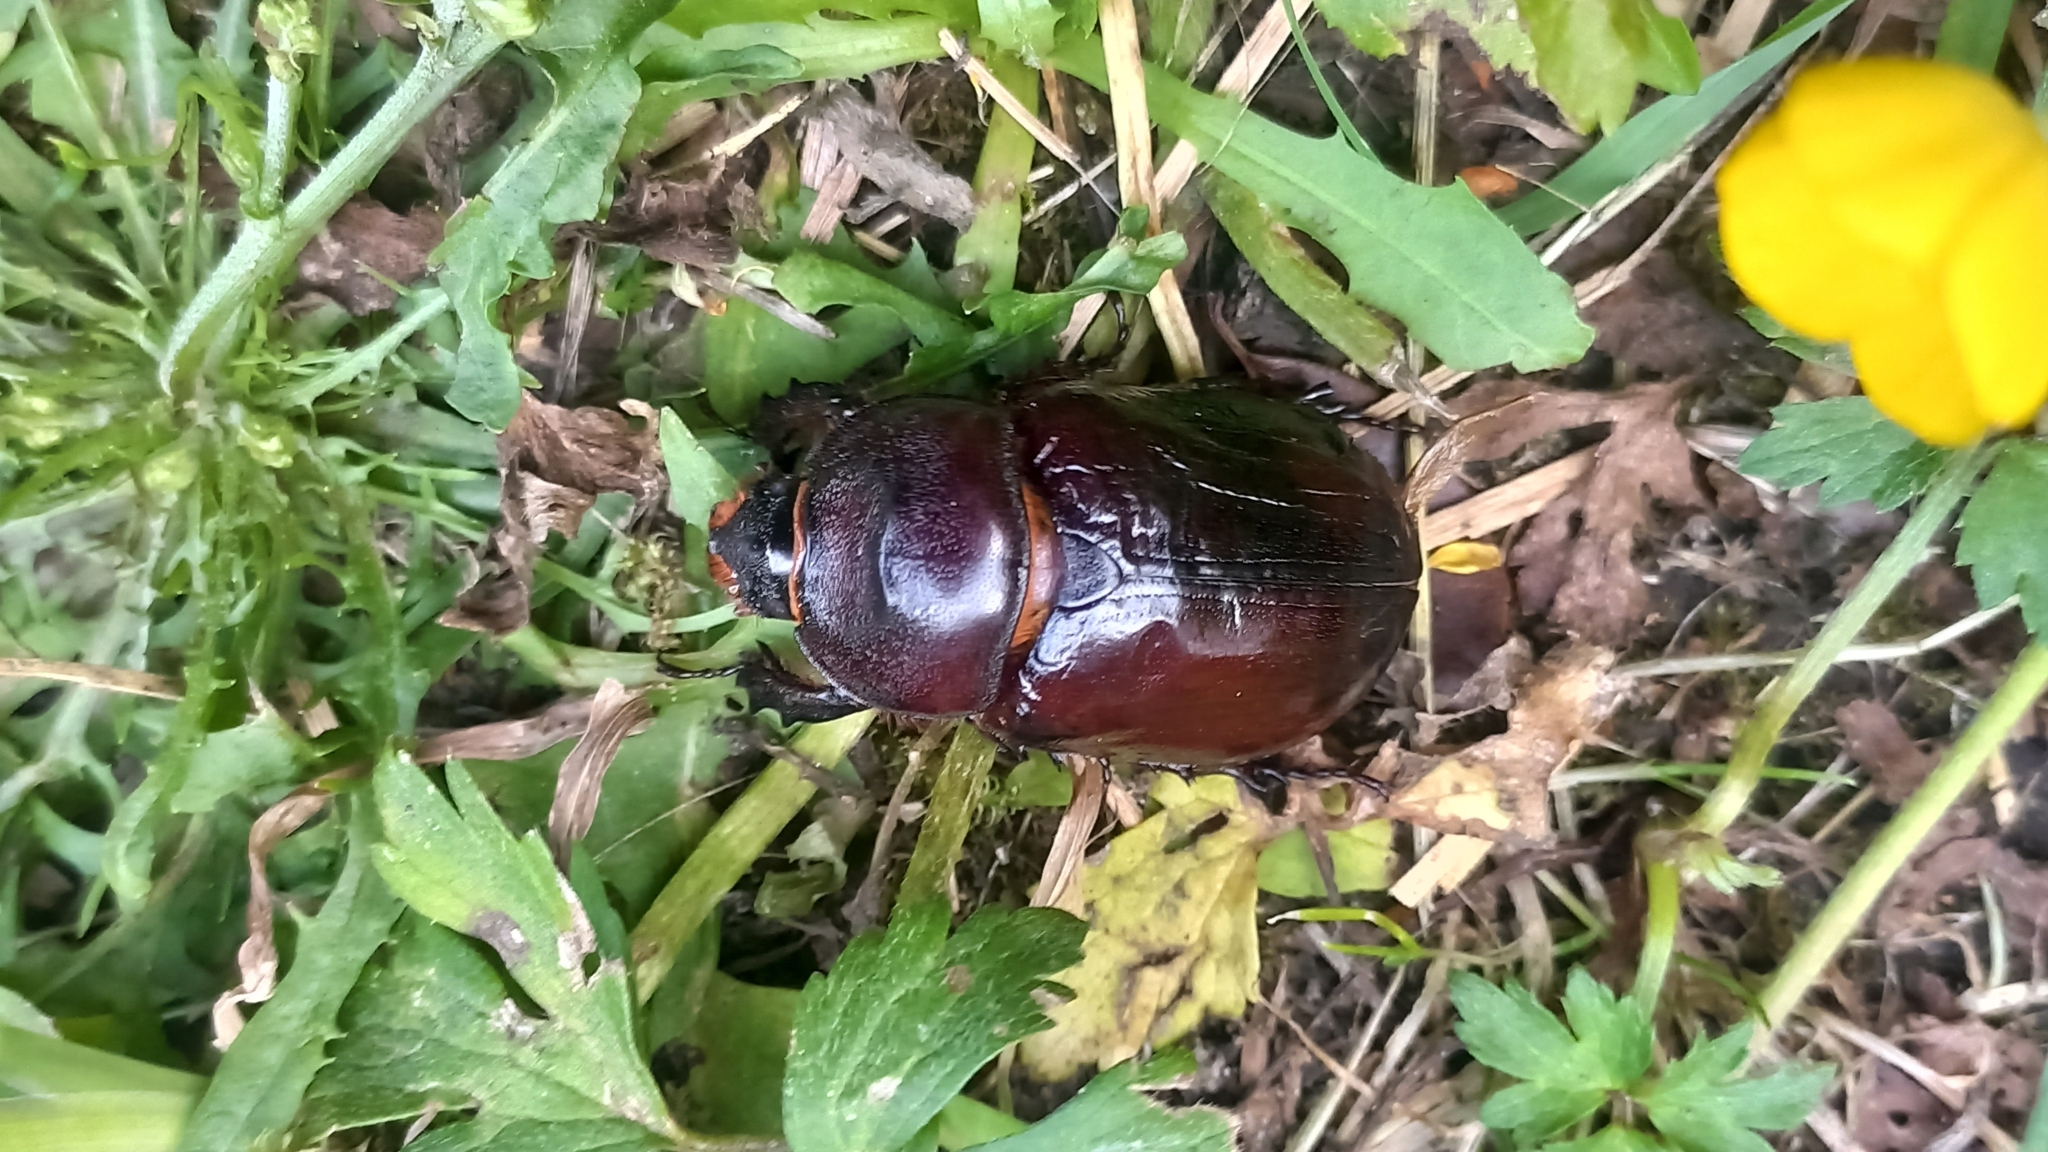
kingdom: Animalia
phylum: Arthropoda
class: Insecta
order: Coleoptera
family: Scarabaeidae
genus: Oryctes
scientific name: Oryctes nasicornis
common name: European rhinoceros beetle
